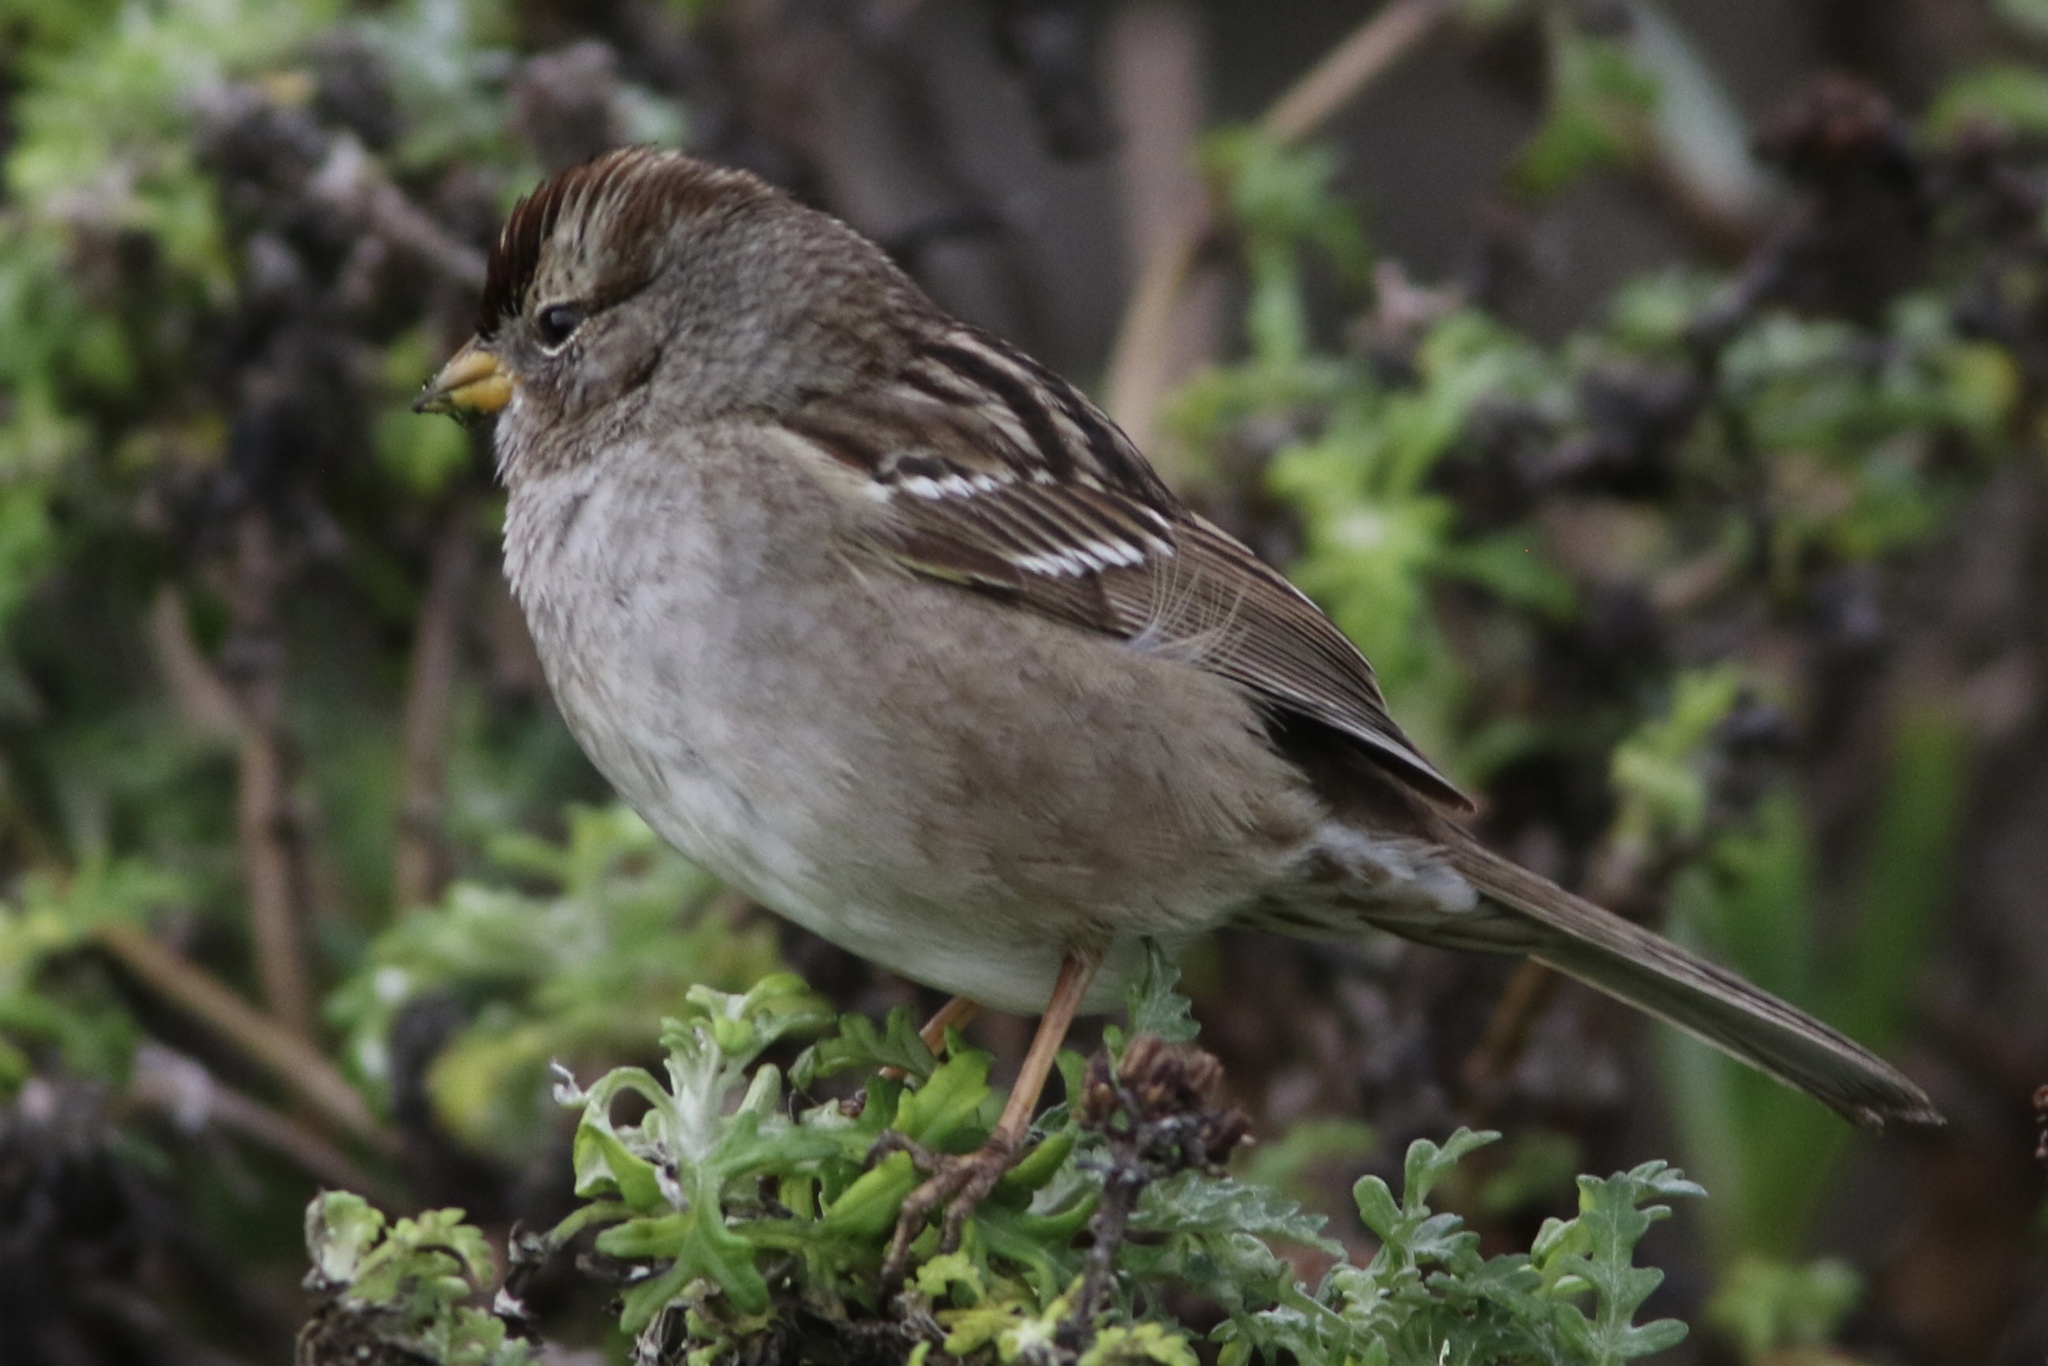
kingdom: Animalia
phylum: Chordata
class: Aves
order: Passeriformes
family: Passerellidae
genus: Zonotrichia
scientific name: Zonotrichia leucophrys
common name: White-crowned sparrow
